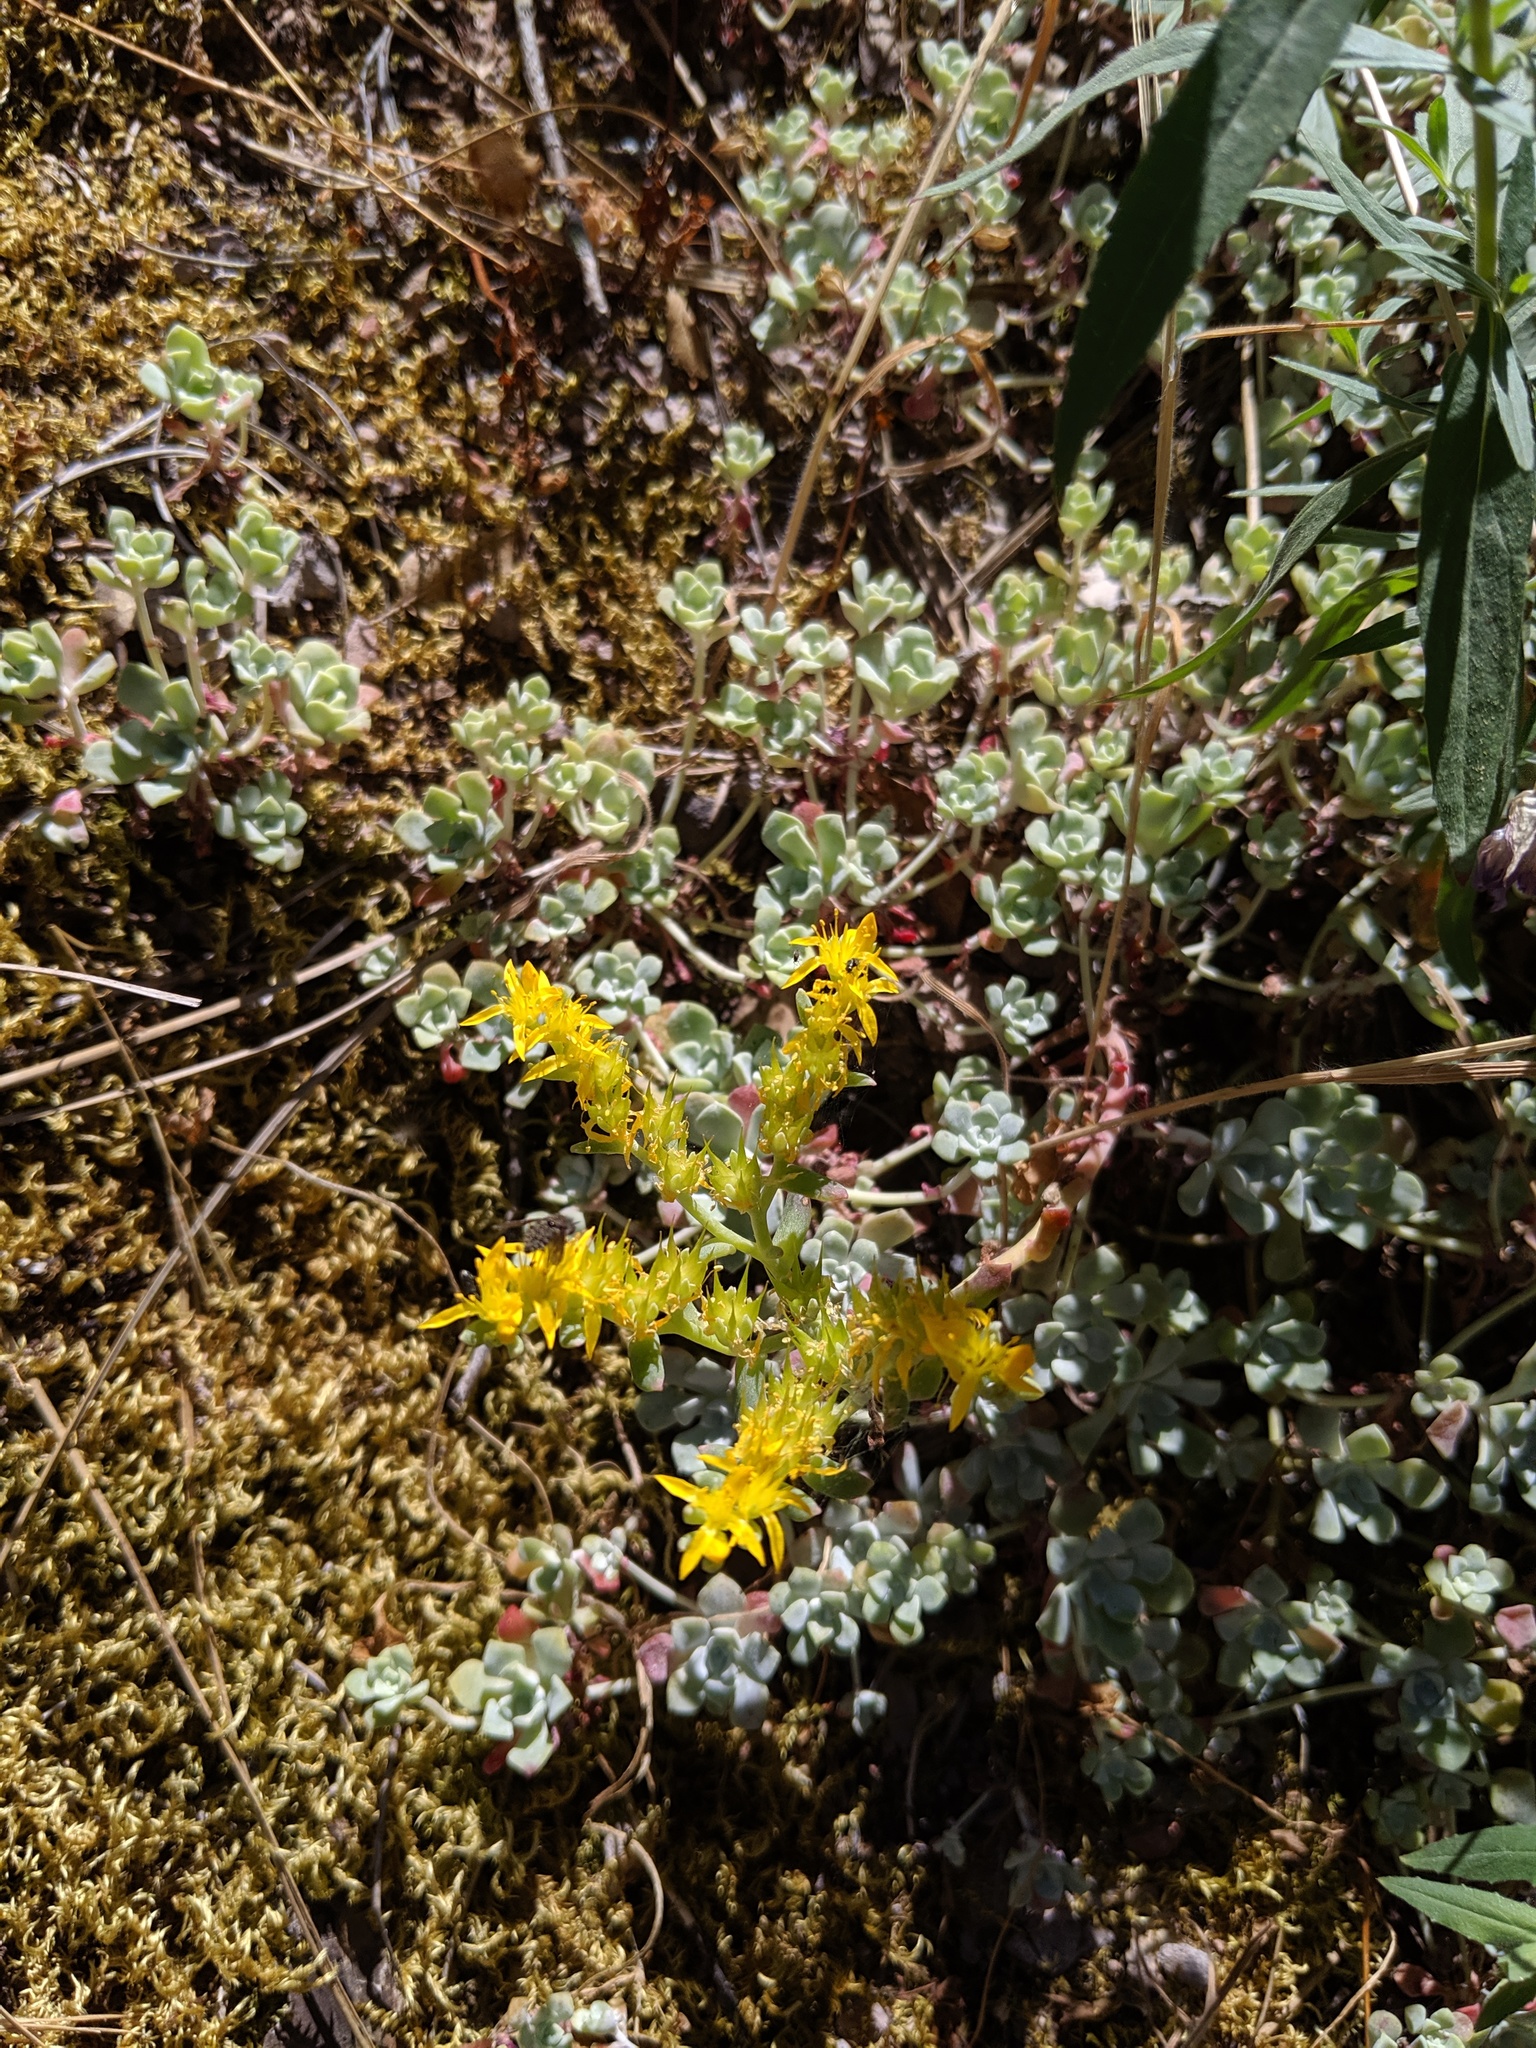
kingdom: Plantae
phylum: Tracheophyta
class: Magnoliopsida
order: Saxifragales
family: Crassulaceae
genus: Sedum
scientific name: Sedum spathulifolium
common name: Colorado stonecrop
